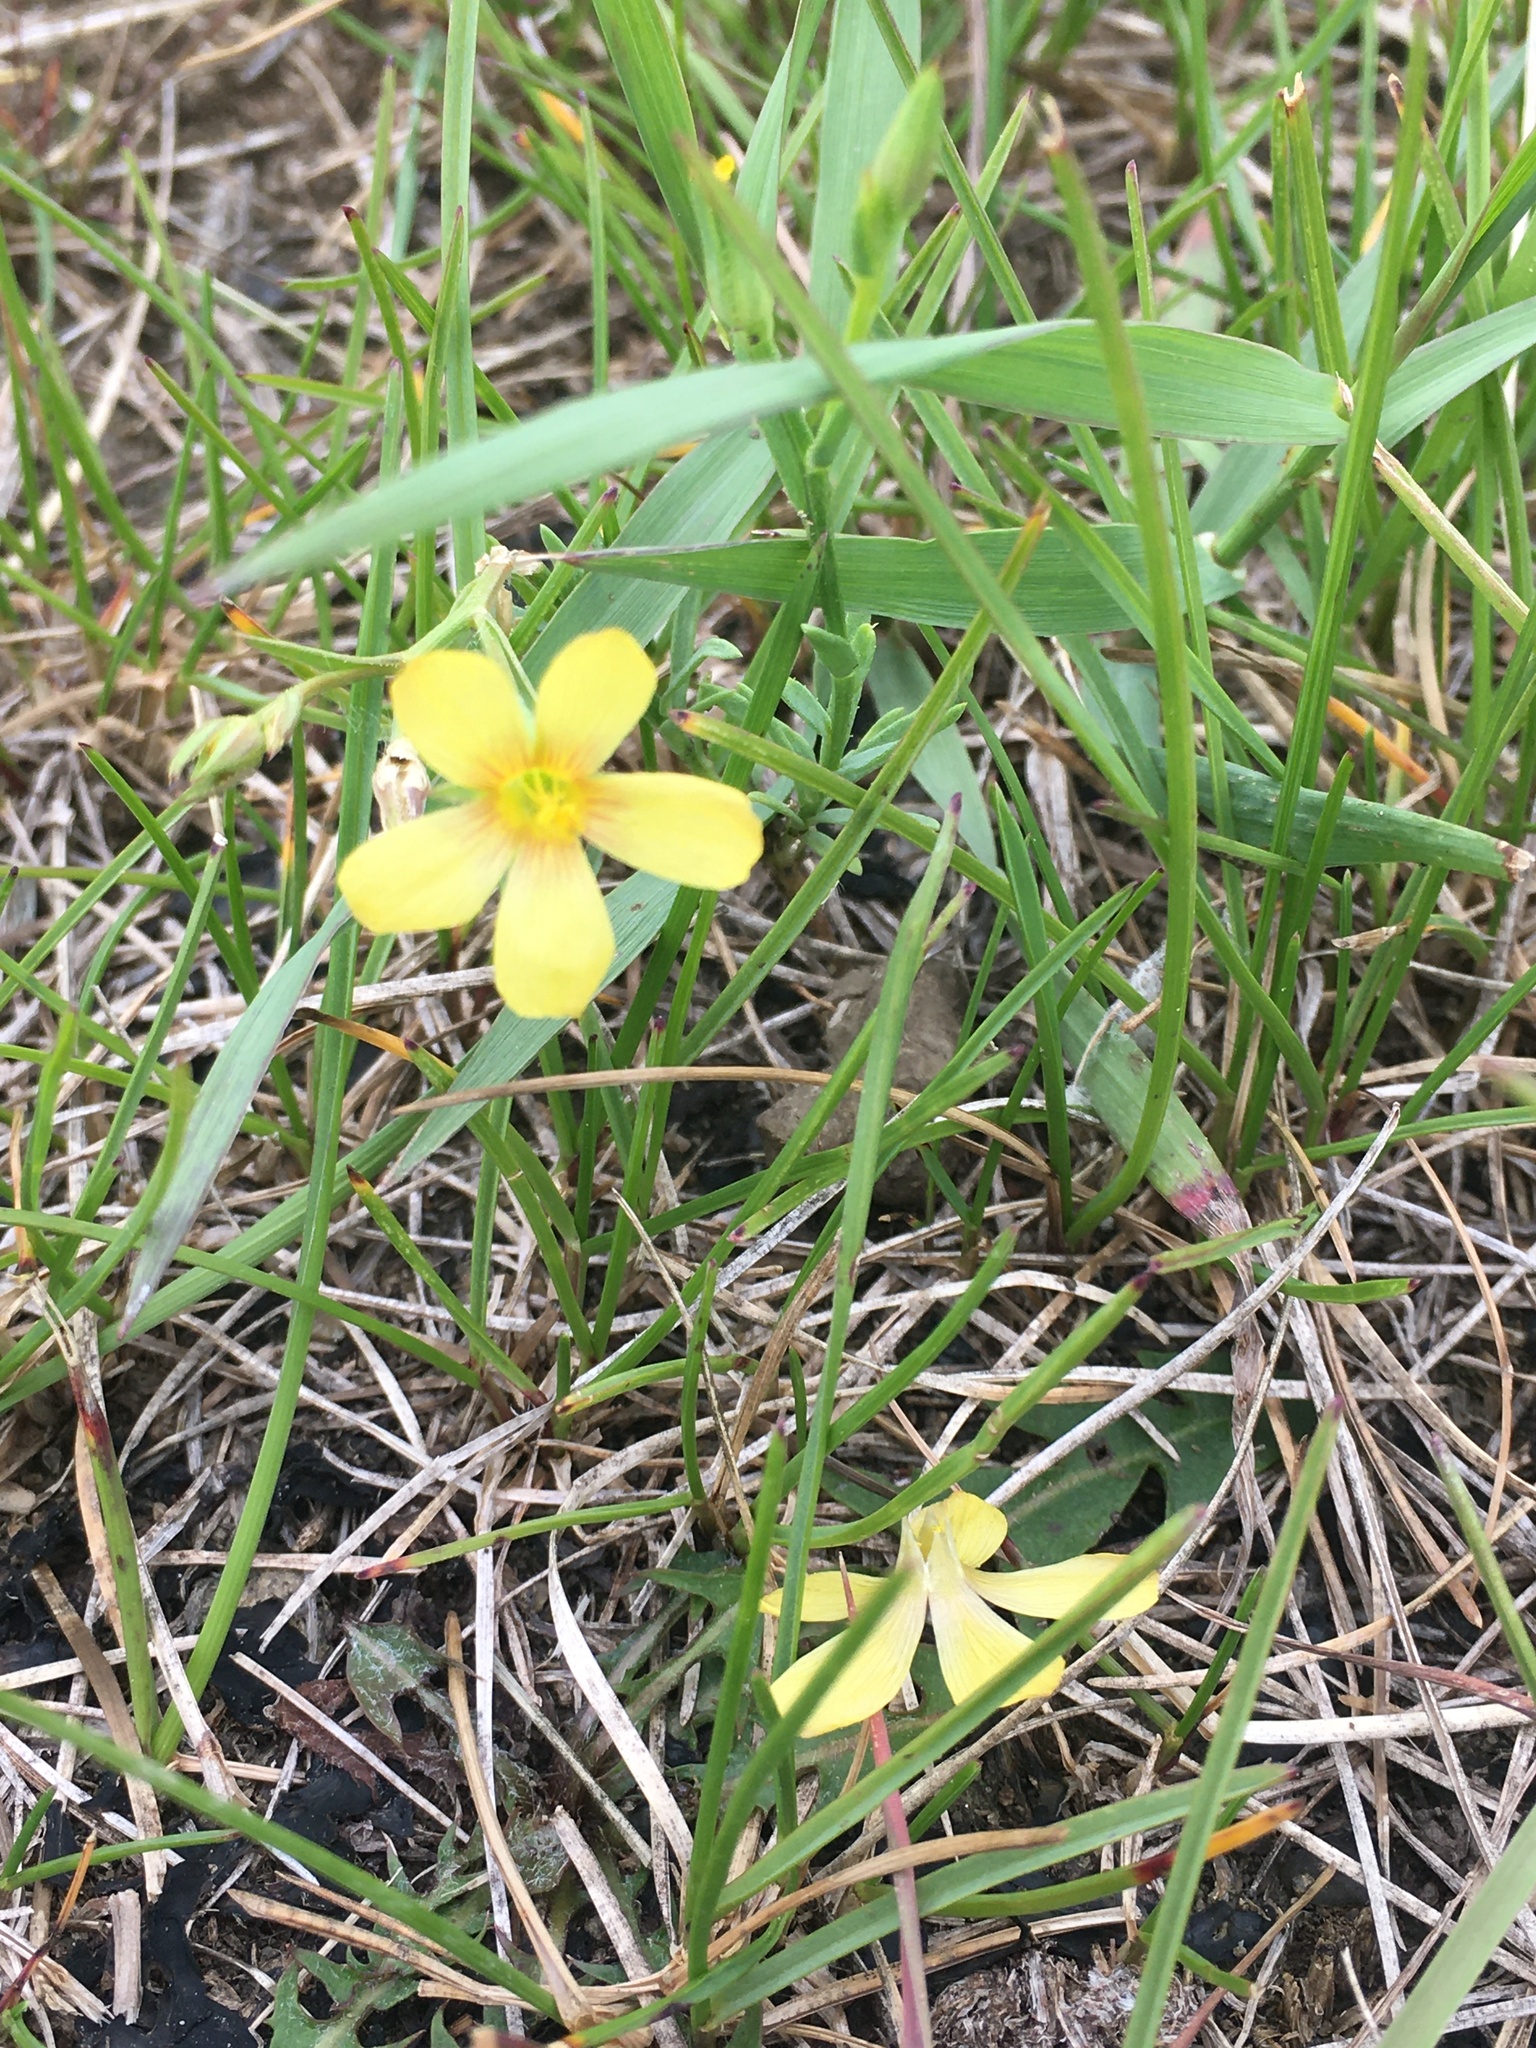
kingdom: Plantae
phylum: Tracheophyta
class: Magnoliopsida
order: Malpighiales
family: Linaceae
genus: Linum
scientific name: Linum compactum
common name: Wyoming flax
